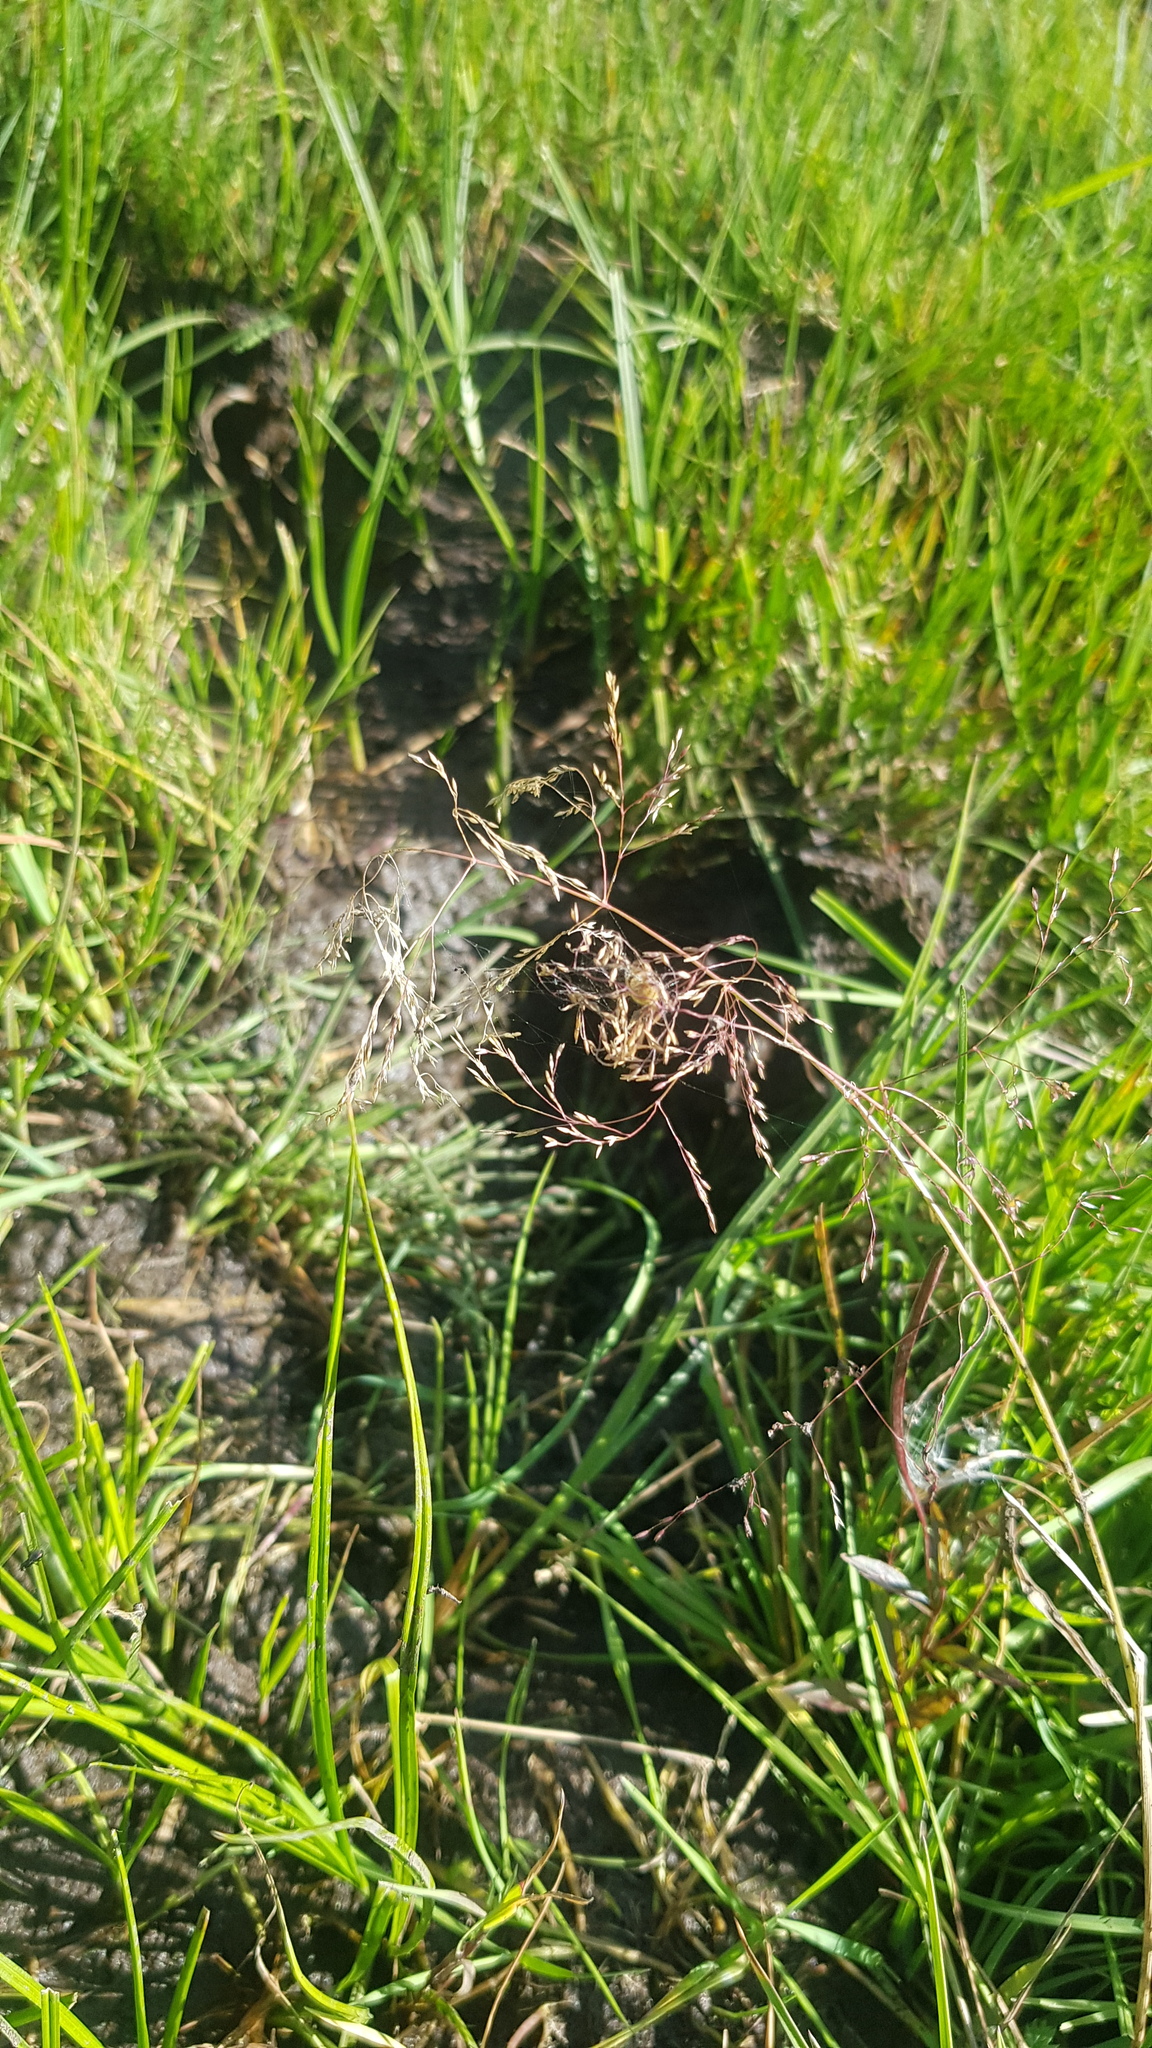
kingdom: Plantae
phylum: Tracheophyta
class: Liliopsida
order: Poales
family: Poaceae
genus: Agrostis
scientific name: Agrostis vinealis
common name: Brown bent
